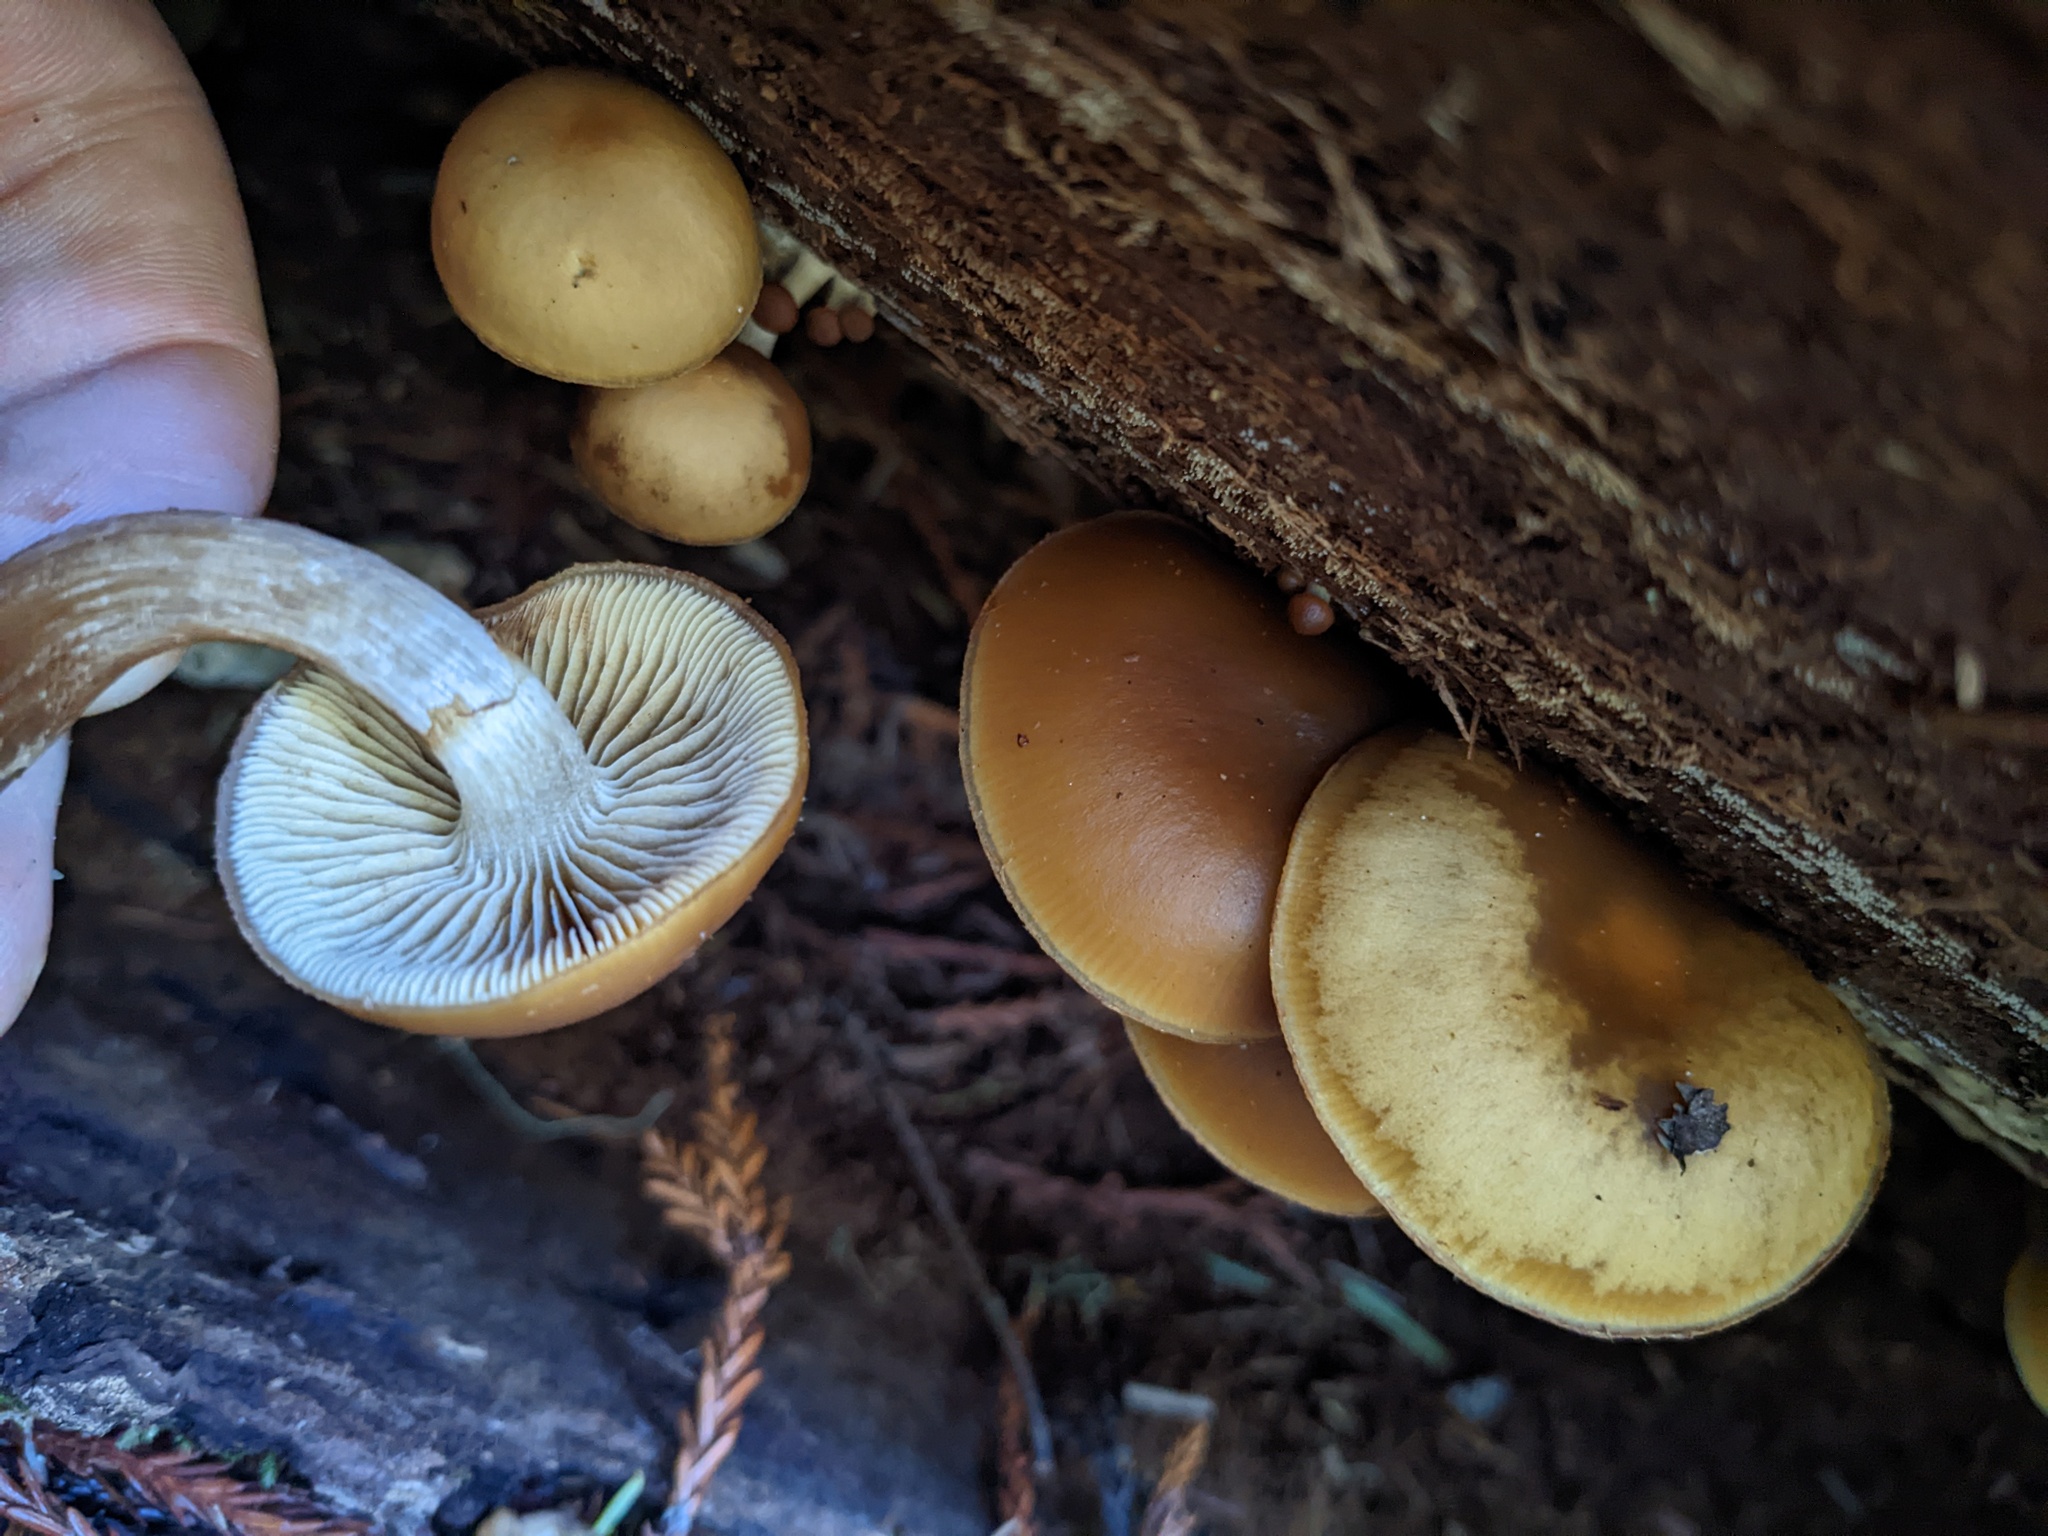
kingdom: Fungi
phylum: Basidiomycota
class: Agaricomycetes
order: Agaricales
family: Hymenogastraceae
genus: Galerina
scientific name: Galerina marginata
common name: Funeral bell
